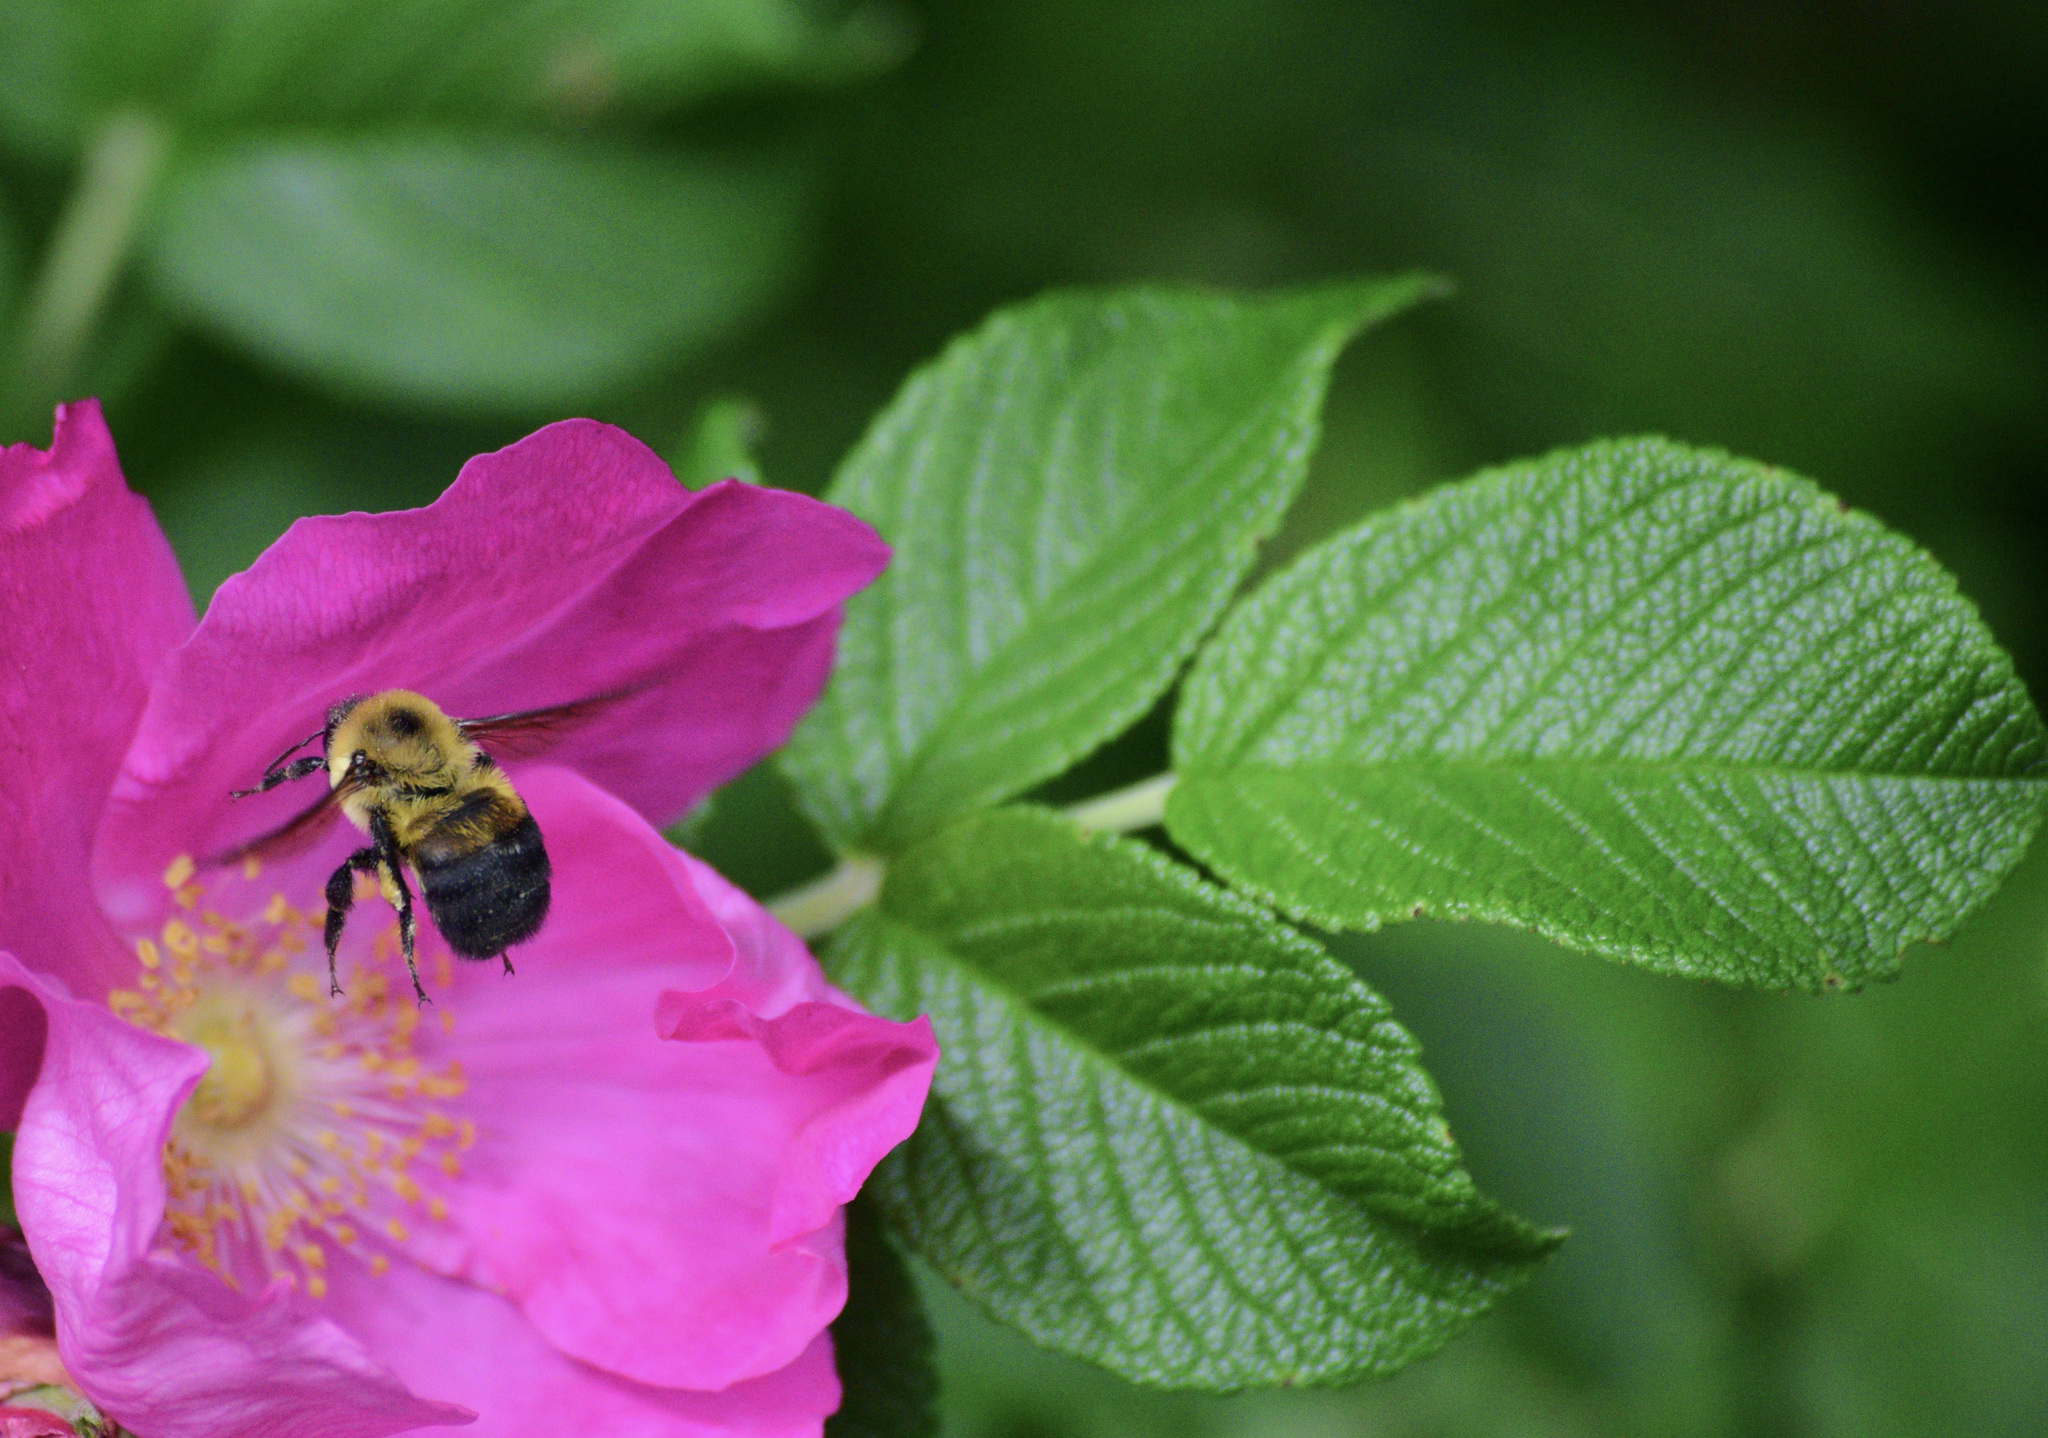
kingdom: Animalia
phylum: Arthropoda
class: Insecta
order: Hymenoptera
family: Apidae
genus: Bombus
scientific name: Bombus griseocollis
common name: Brown-belted bumble bee
